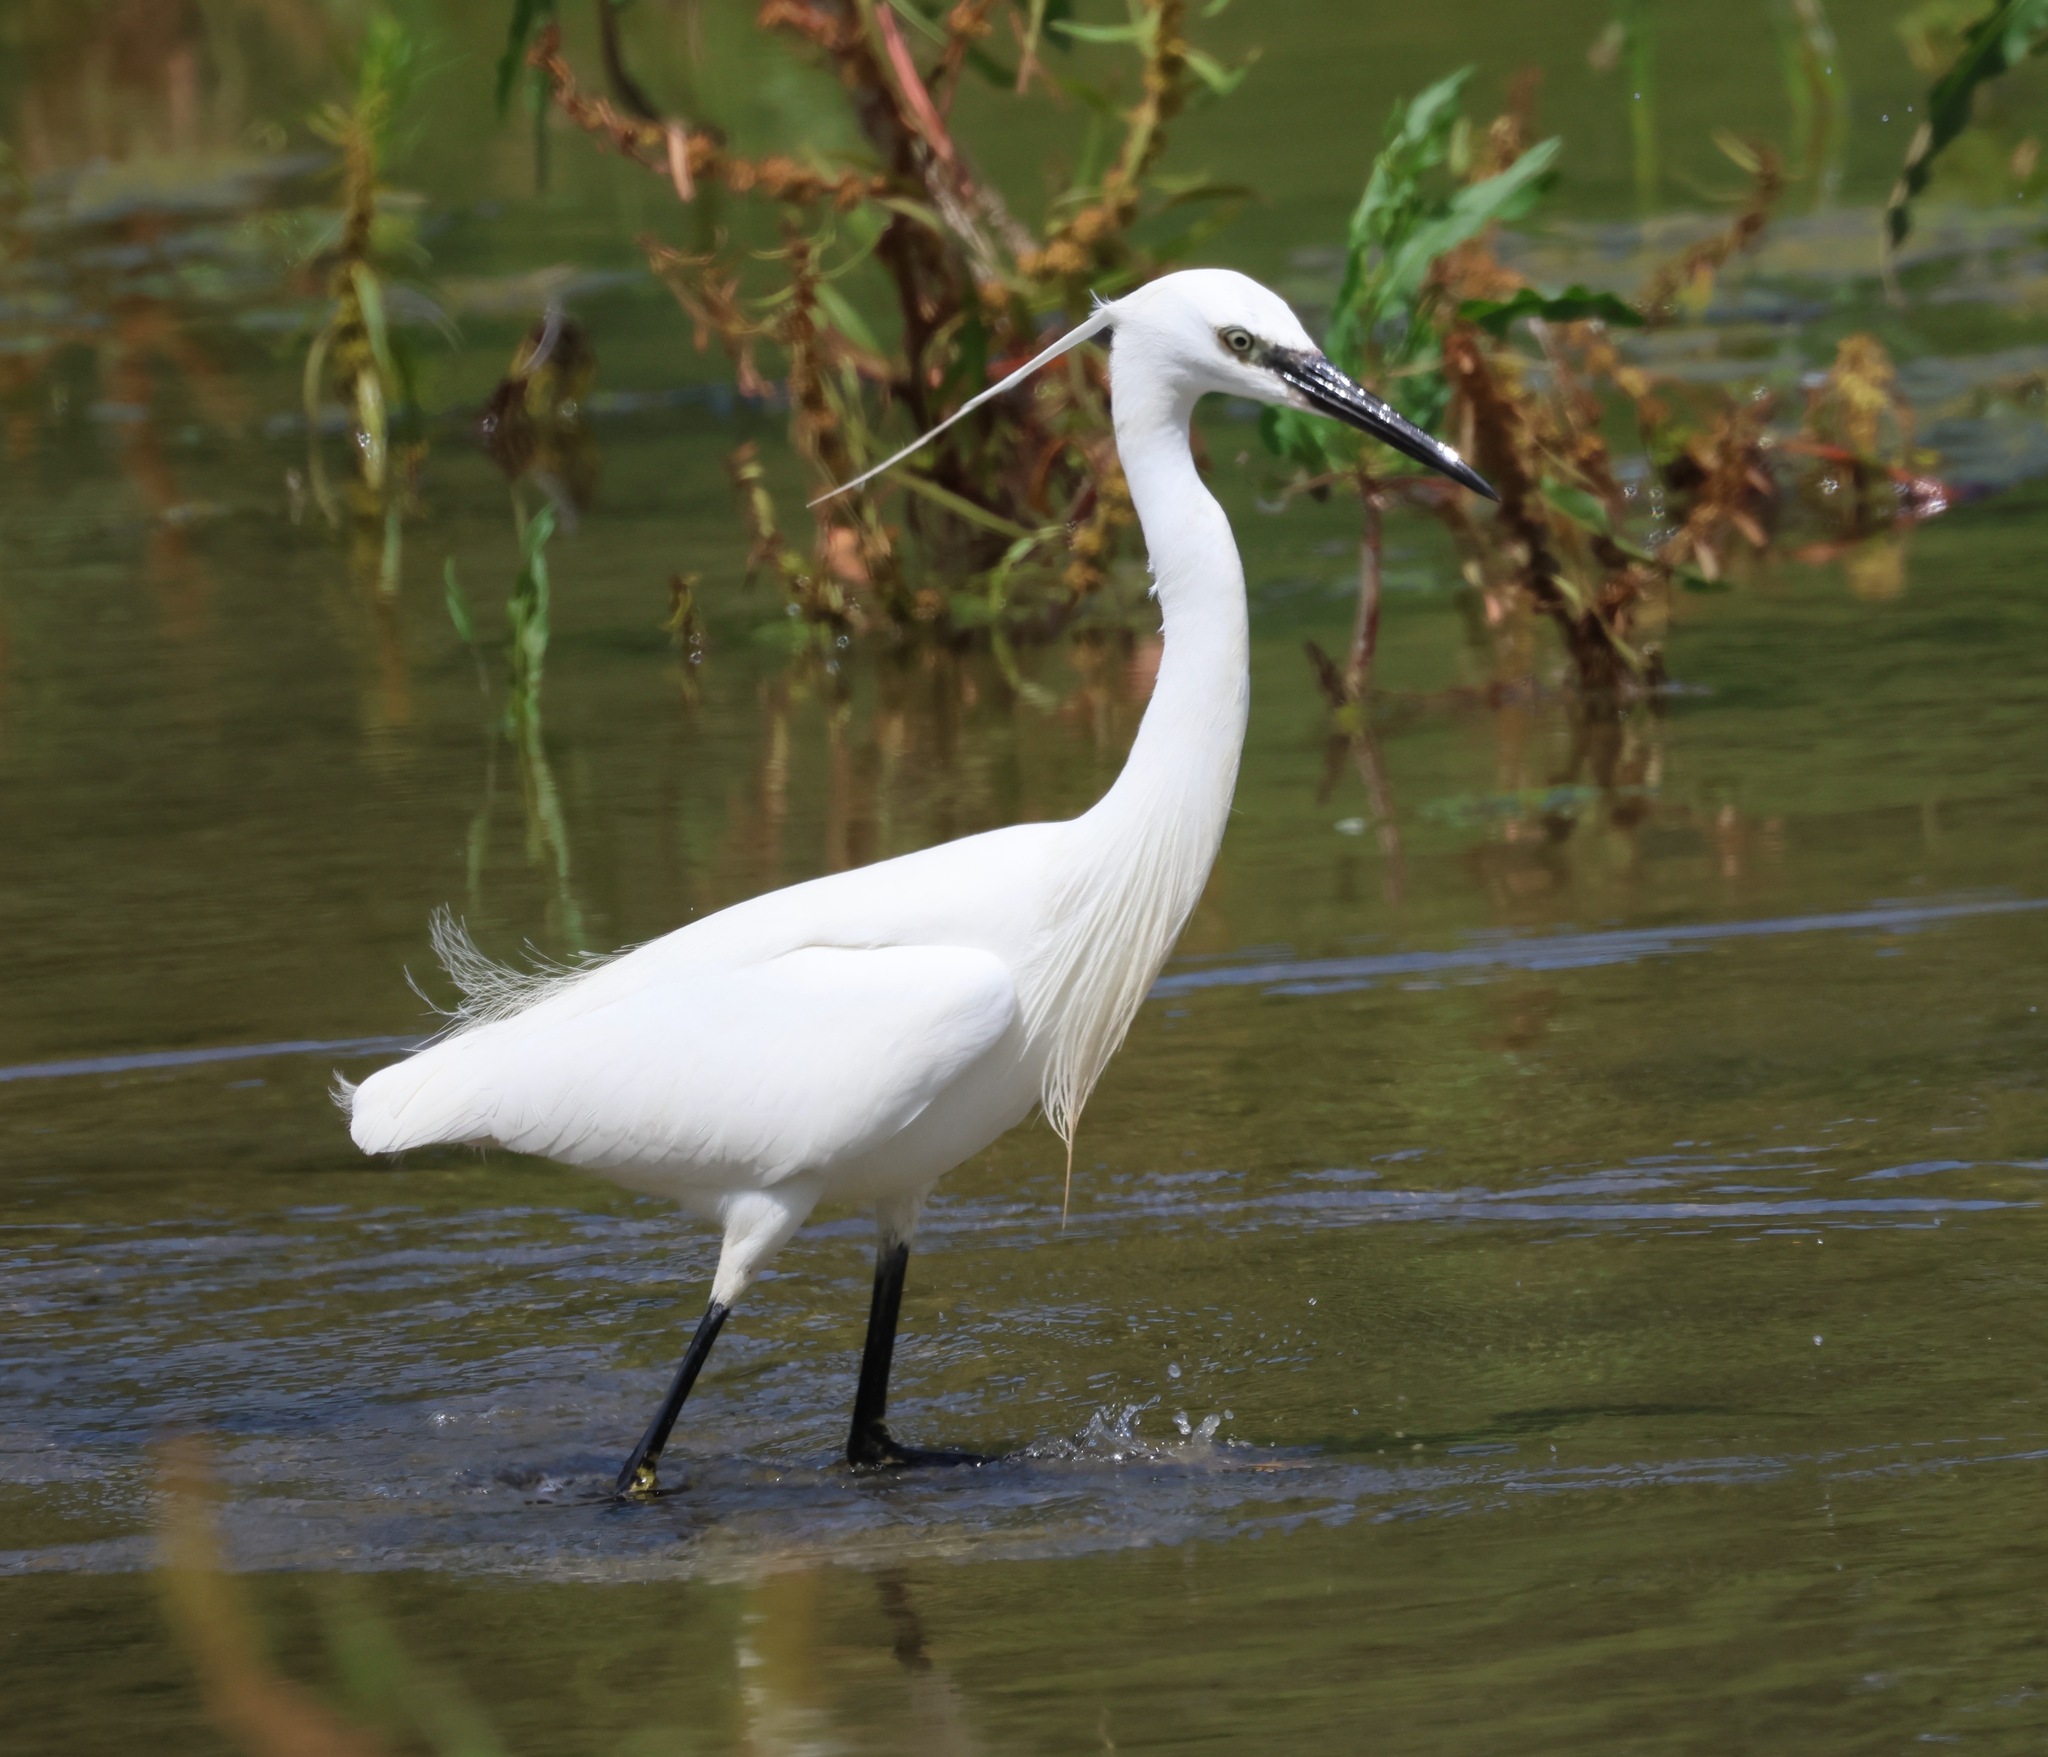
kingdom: Animalia
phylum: Chordata
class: Aves
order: Pelecaniformes
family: Ardeidae
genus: Egretta
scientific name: Egretta garzetta
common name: Little egret
